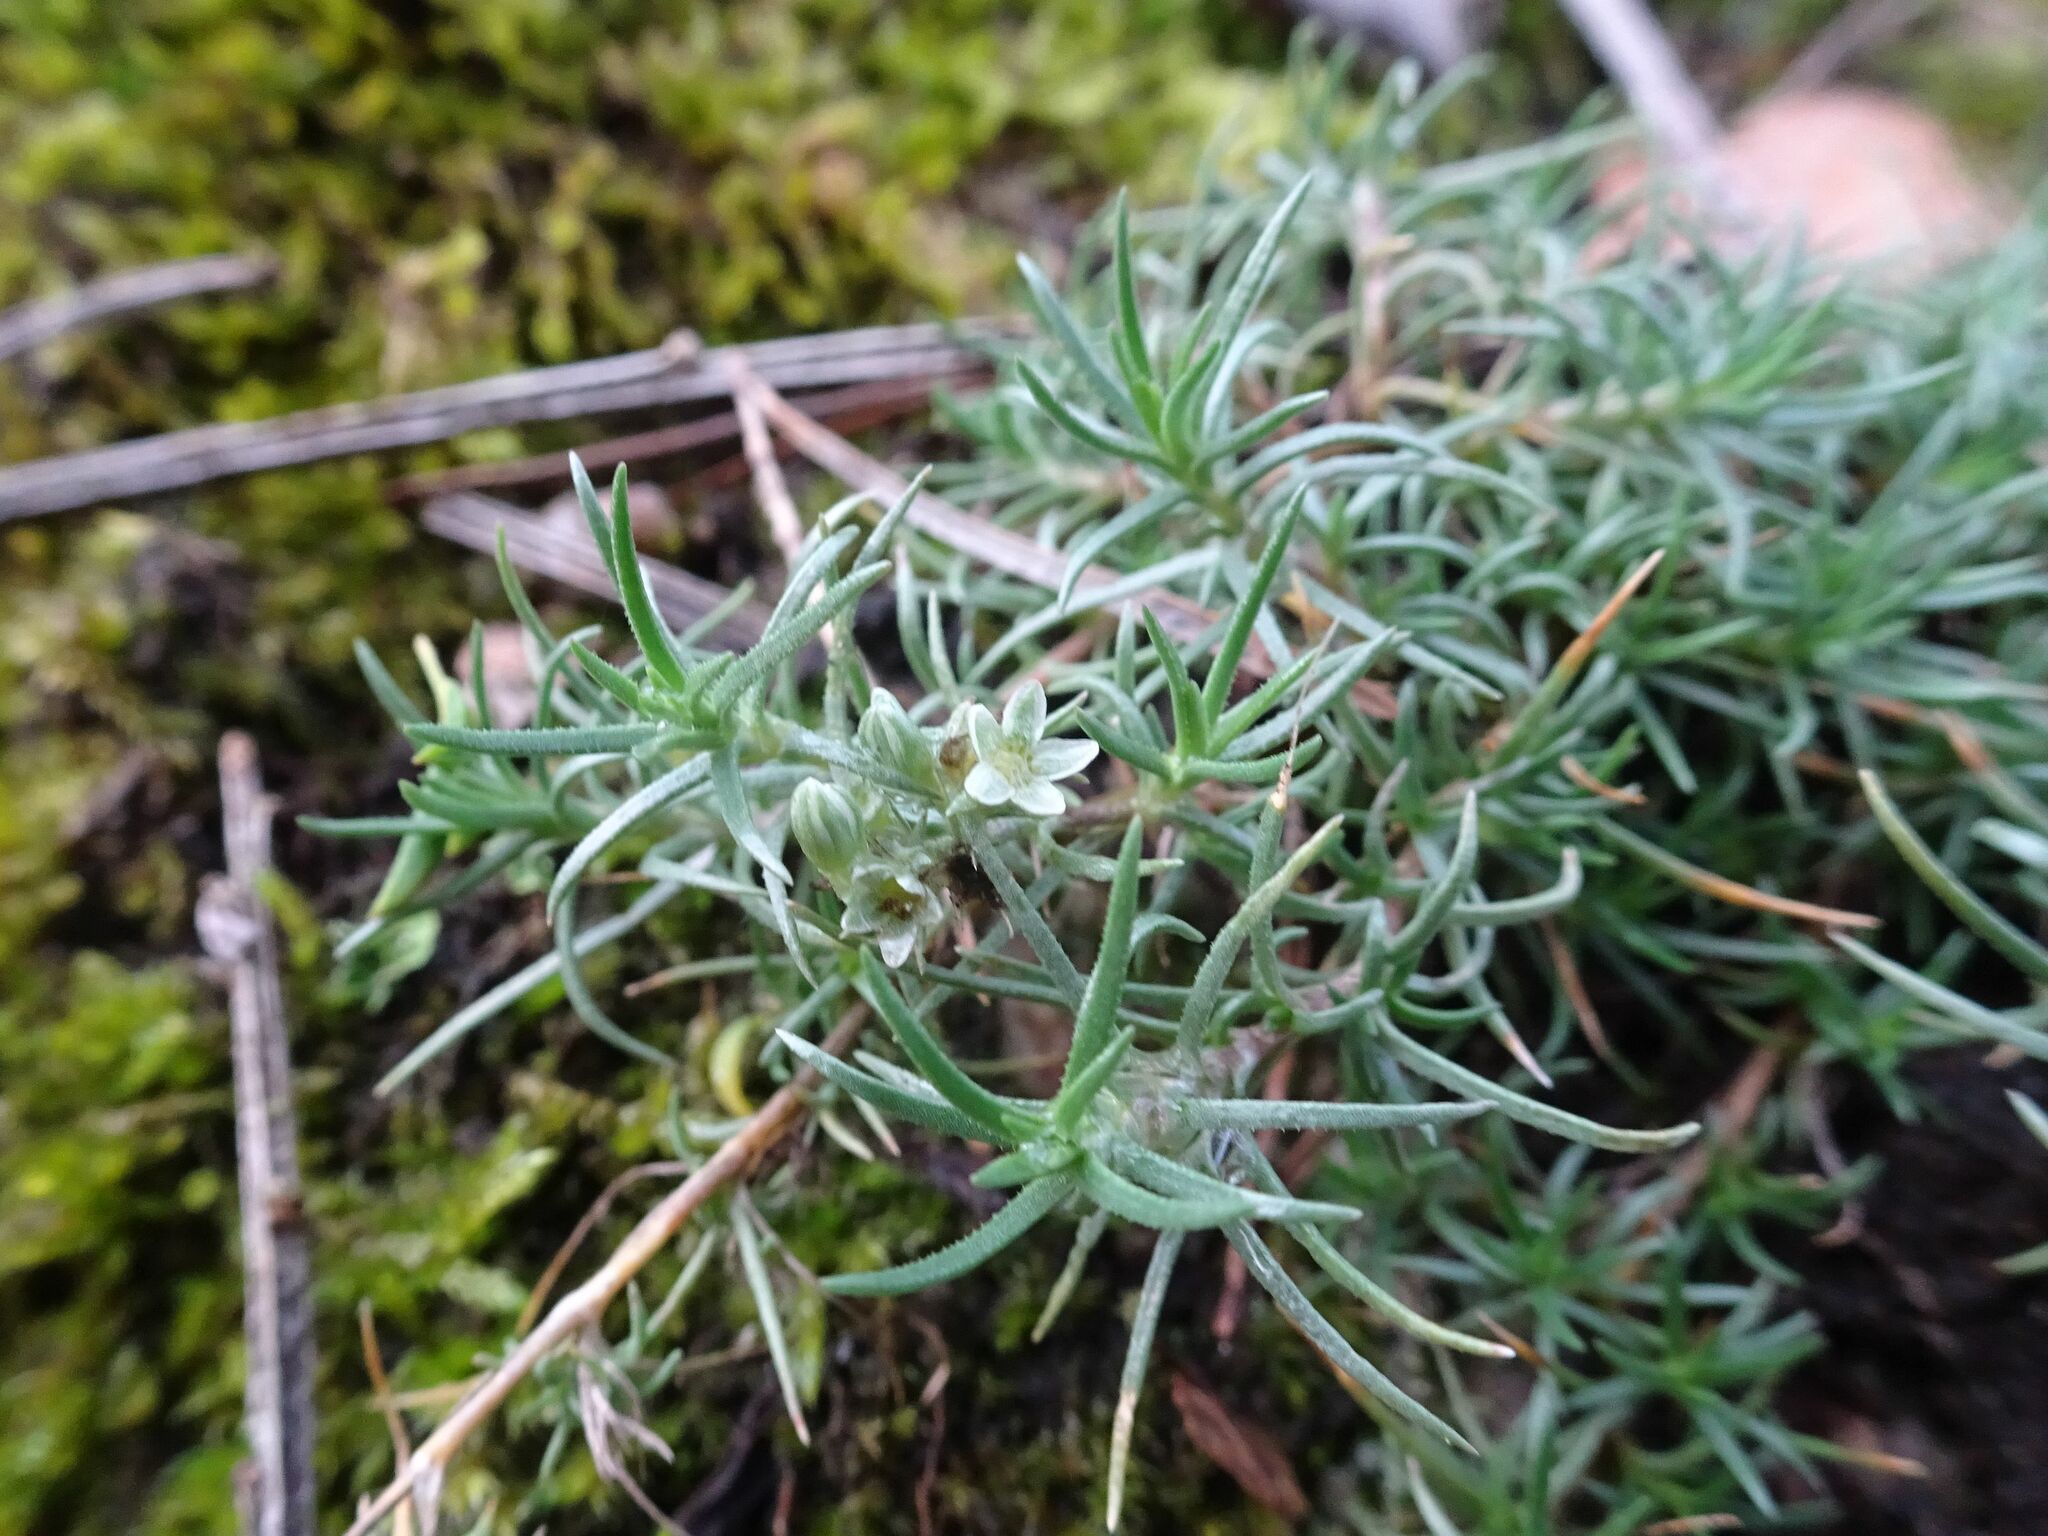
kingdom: Plantae
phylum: Tracheophyta
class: Magnoliopsida
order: Caryophyllales
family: Caryophyllaceae
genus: Scleranthus
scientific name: Scleranthus perennis
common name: Perennial knawel
